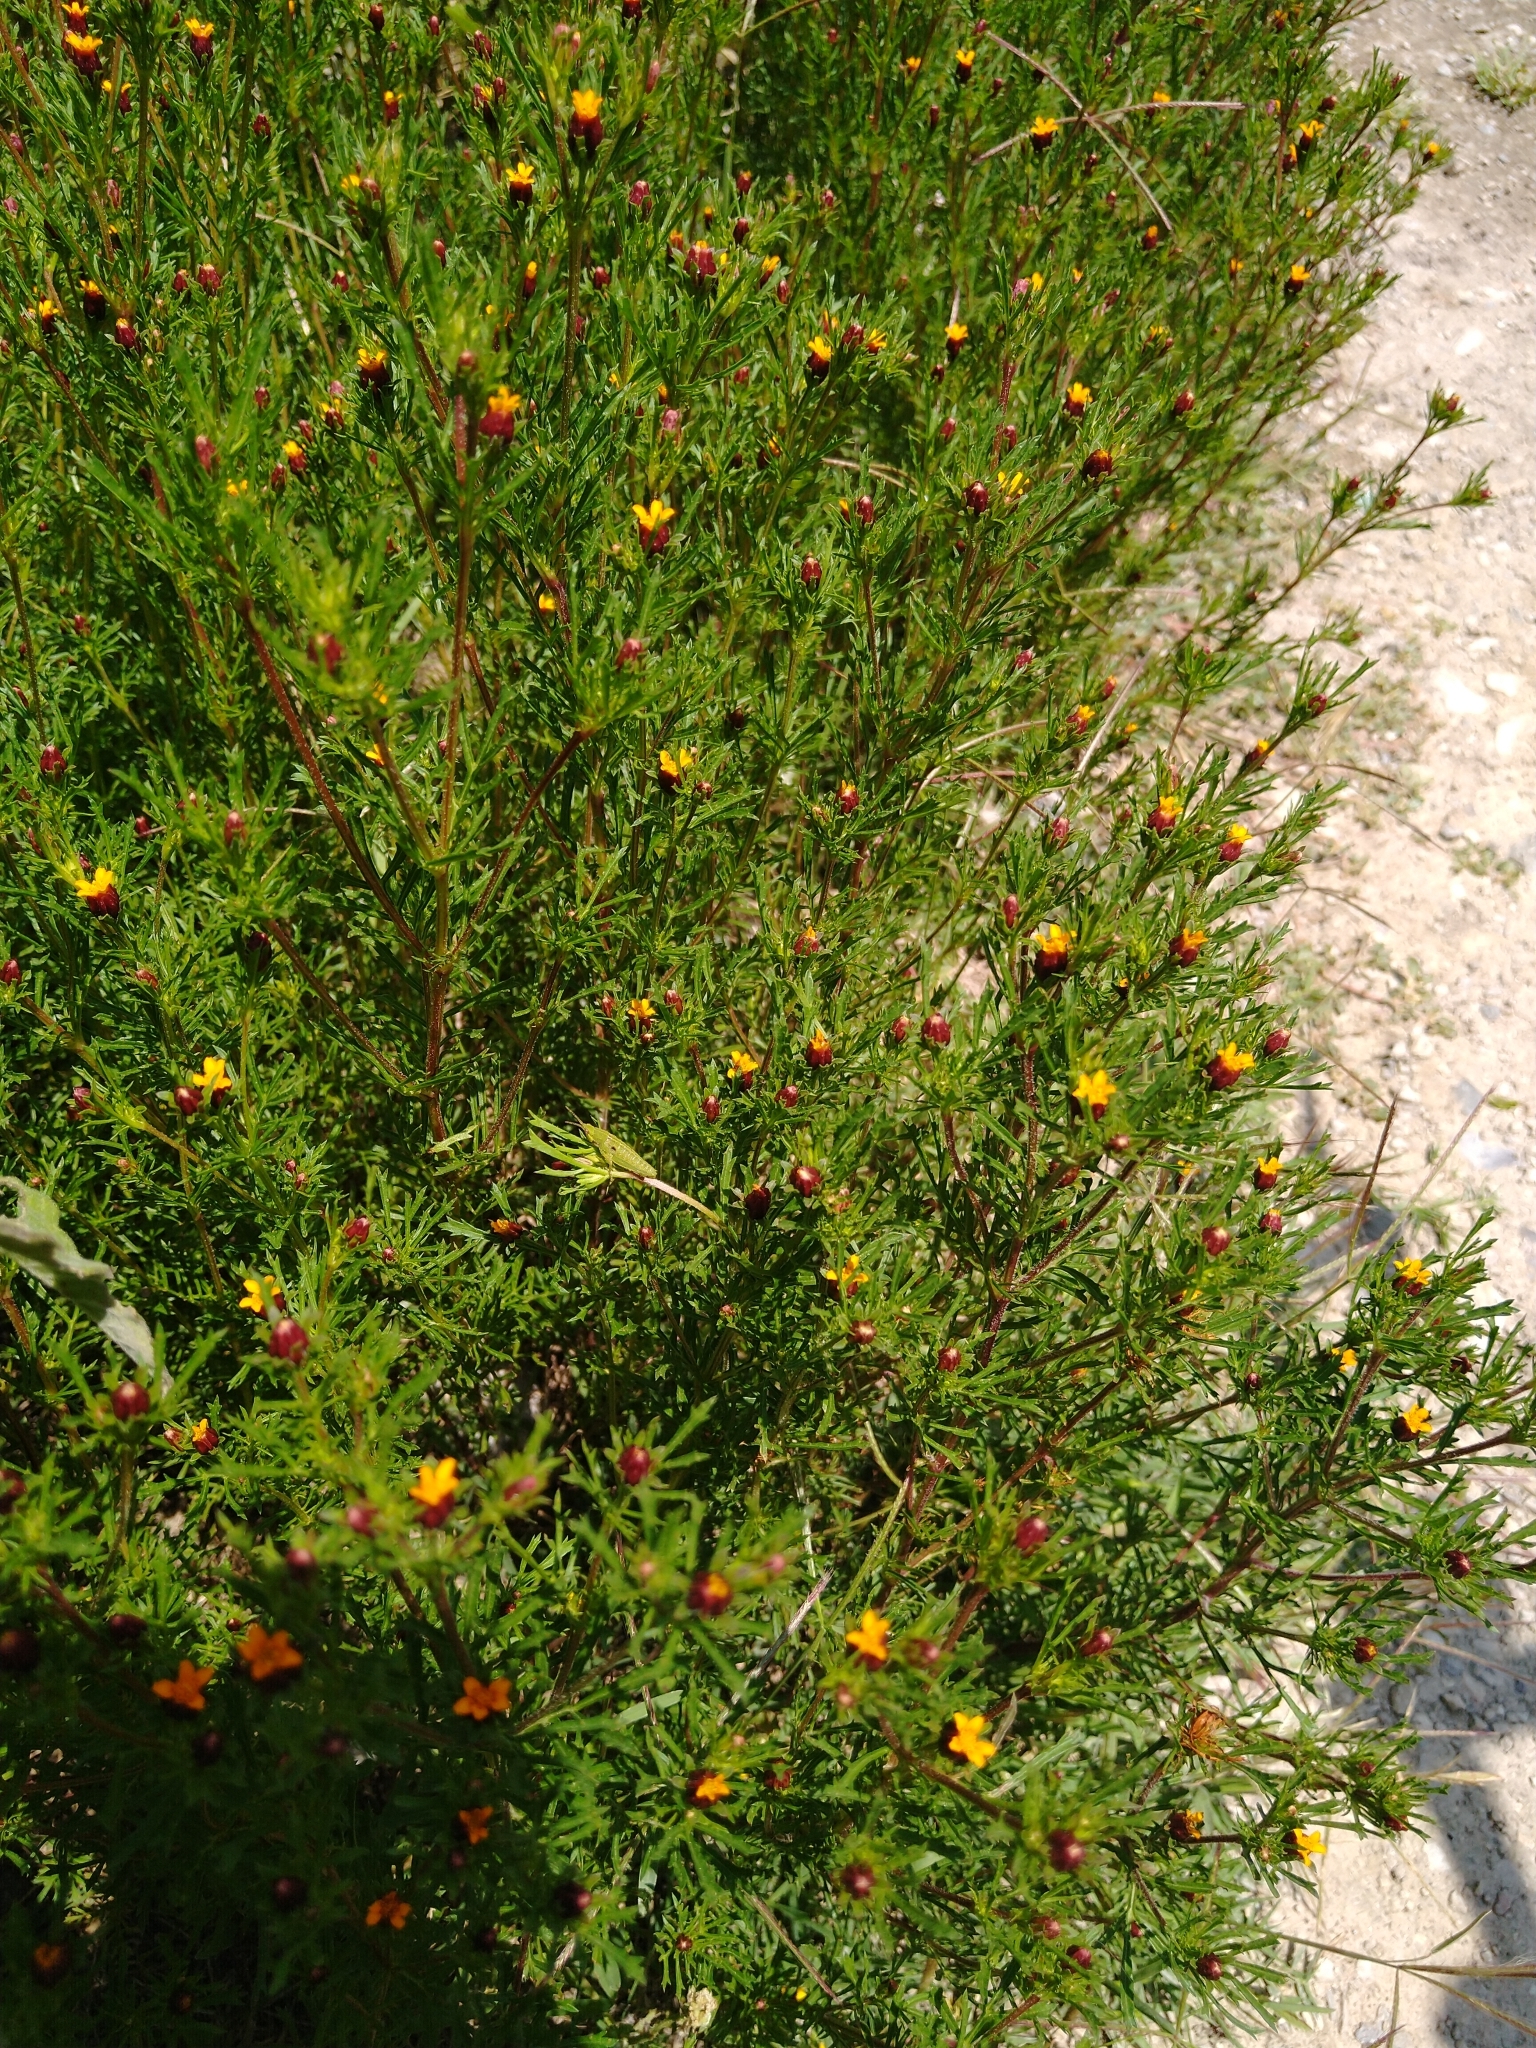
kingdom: Plantae
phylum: Tracheophyta
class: Magnoliopsida
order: Asterales
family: Asteraceae
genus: Dyssodia
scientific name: Dyssodia papposa
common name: Dogweed
